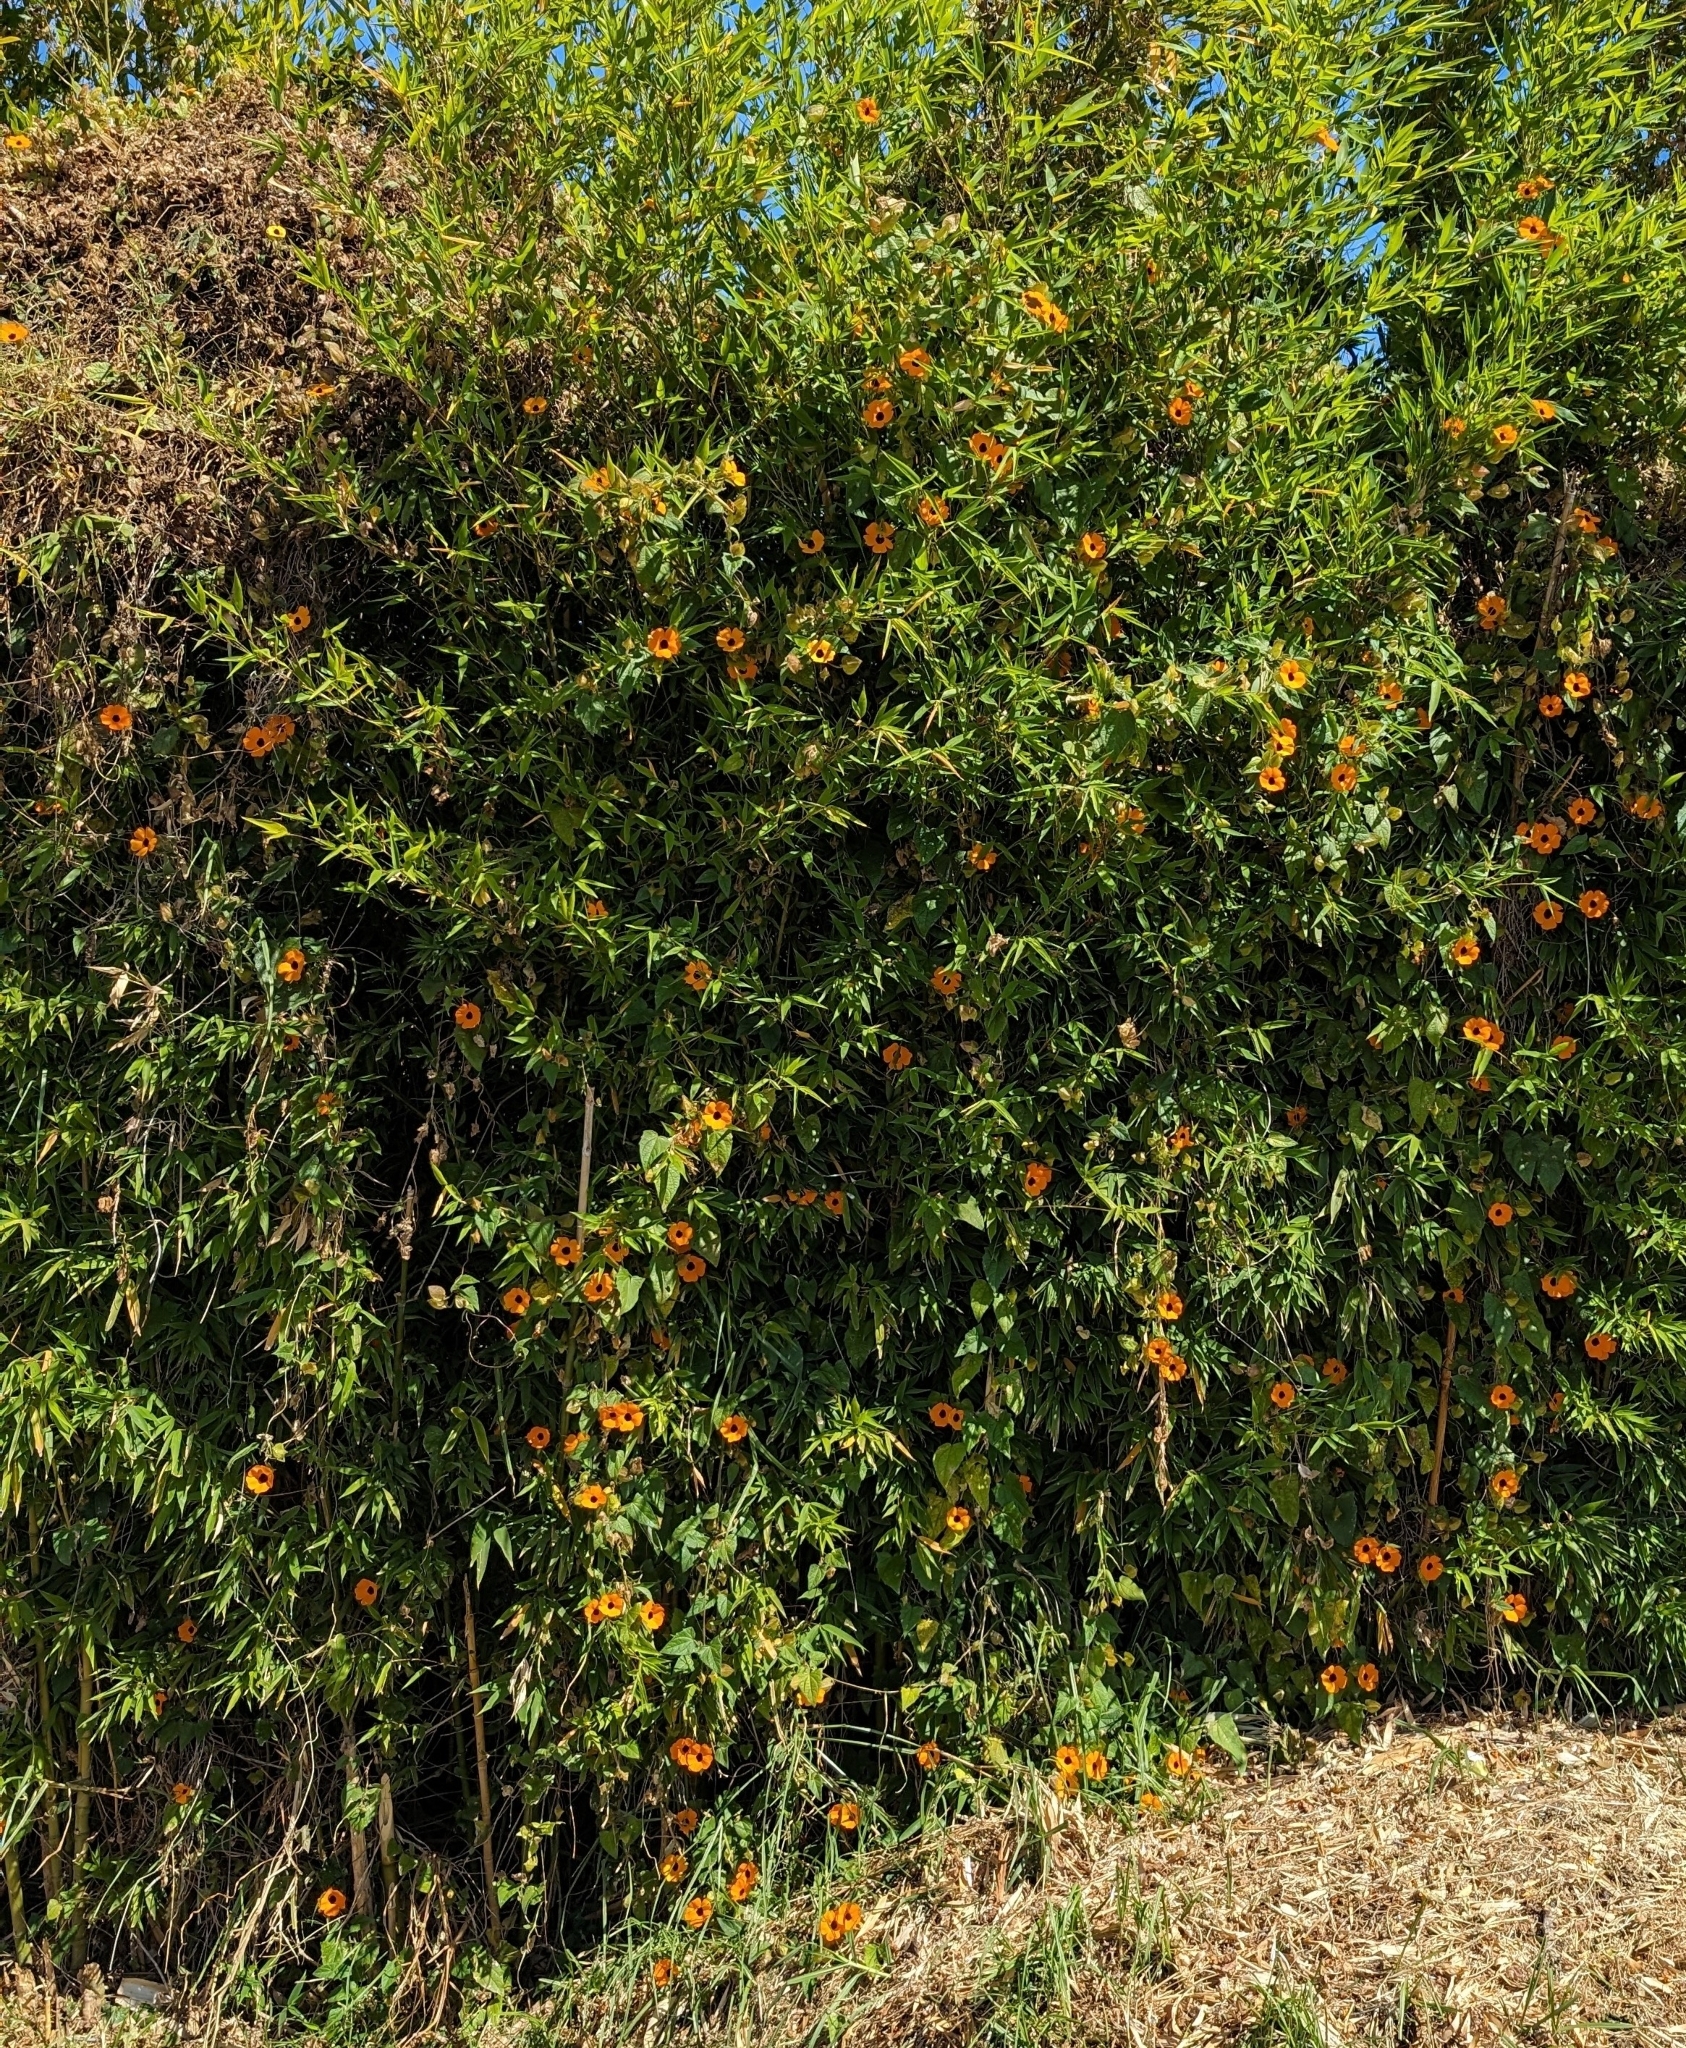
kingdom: Plantae
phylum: Tracheophyta
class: Magnoliopsida
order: Lamiales
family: Acanthaceae
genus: Thunbergia
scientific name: Thunbergia alata
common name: Blackeyed susan vine
